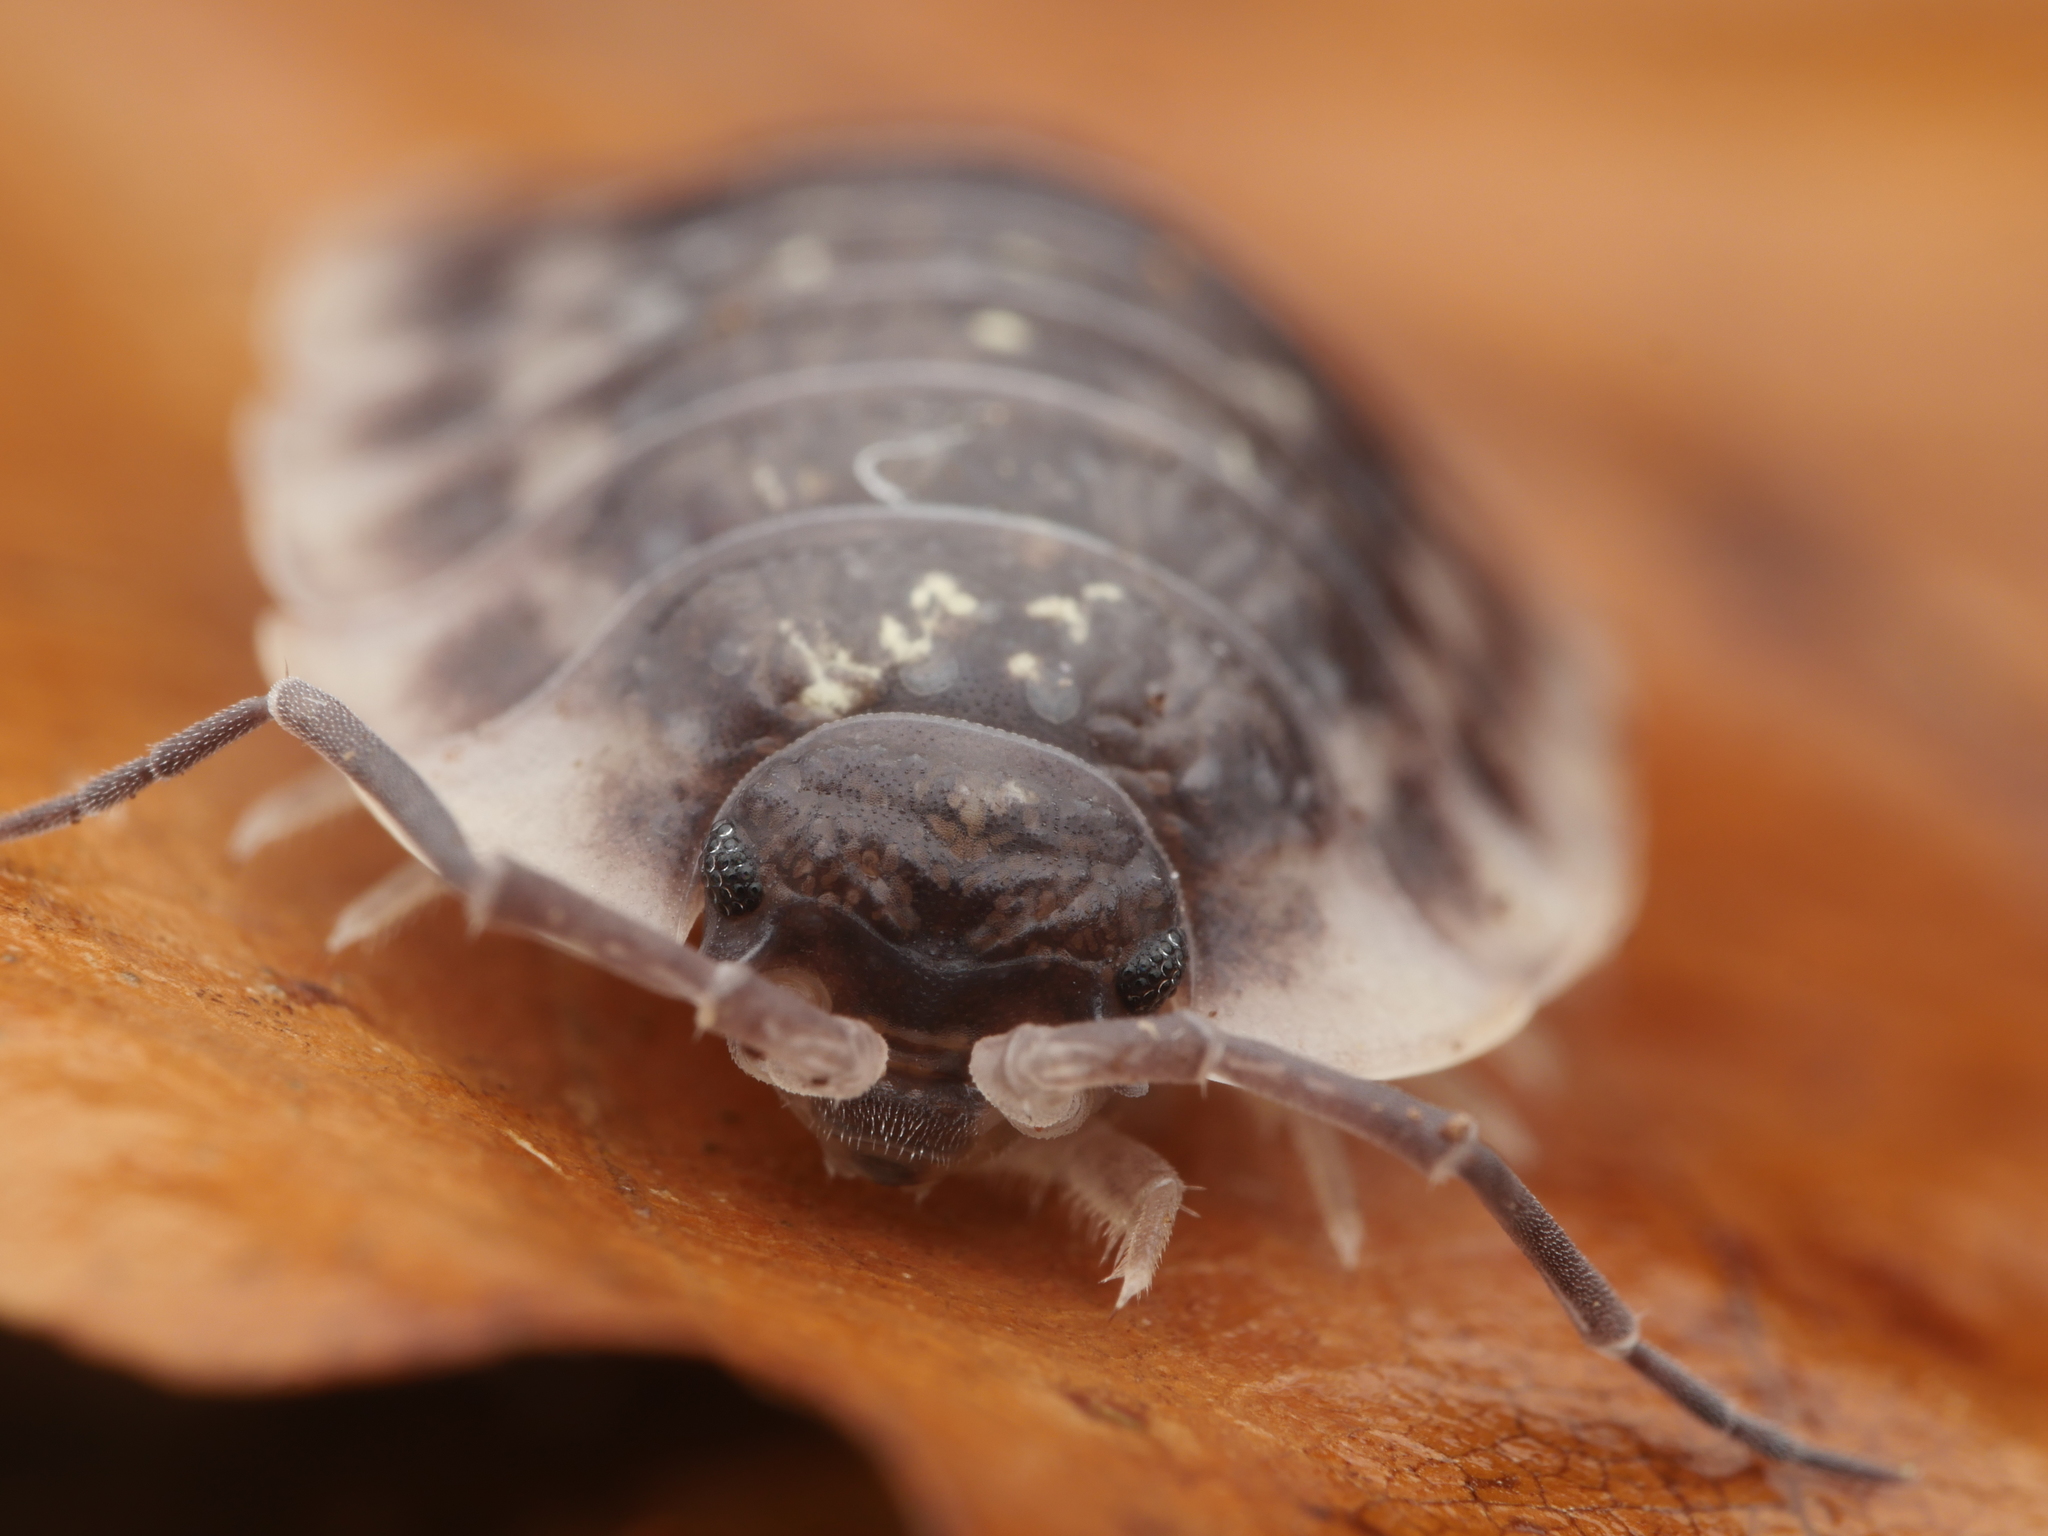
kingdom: Animalia
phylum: Arthropoda
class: Malacostraca
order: Isopoda
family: Oniscidae
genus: Oniscus
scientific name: Oniscus asellus
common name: Common shiny woodlouse
